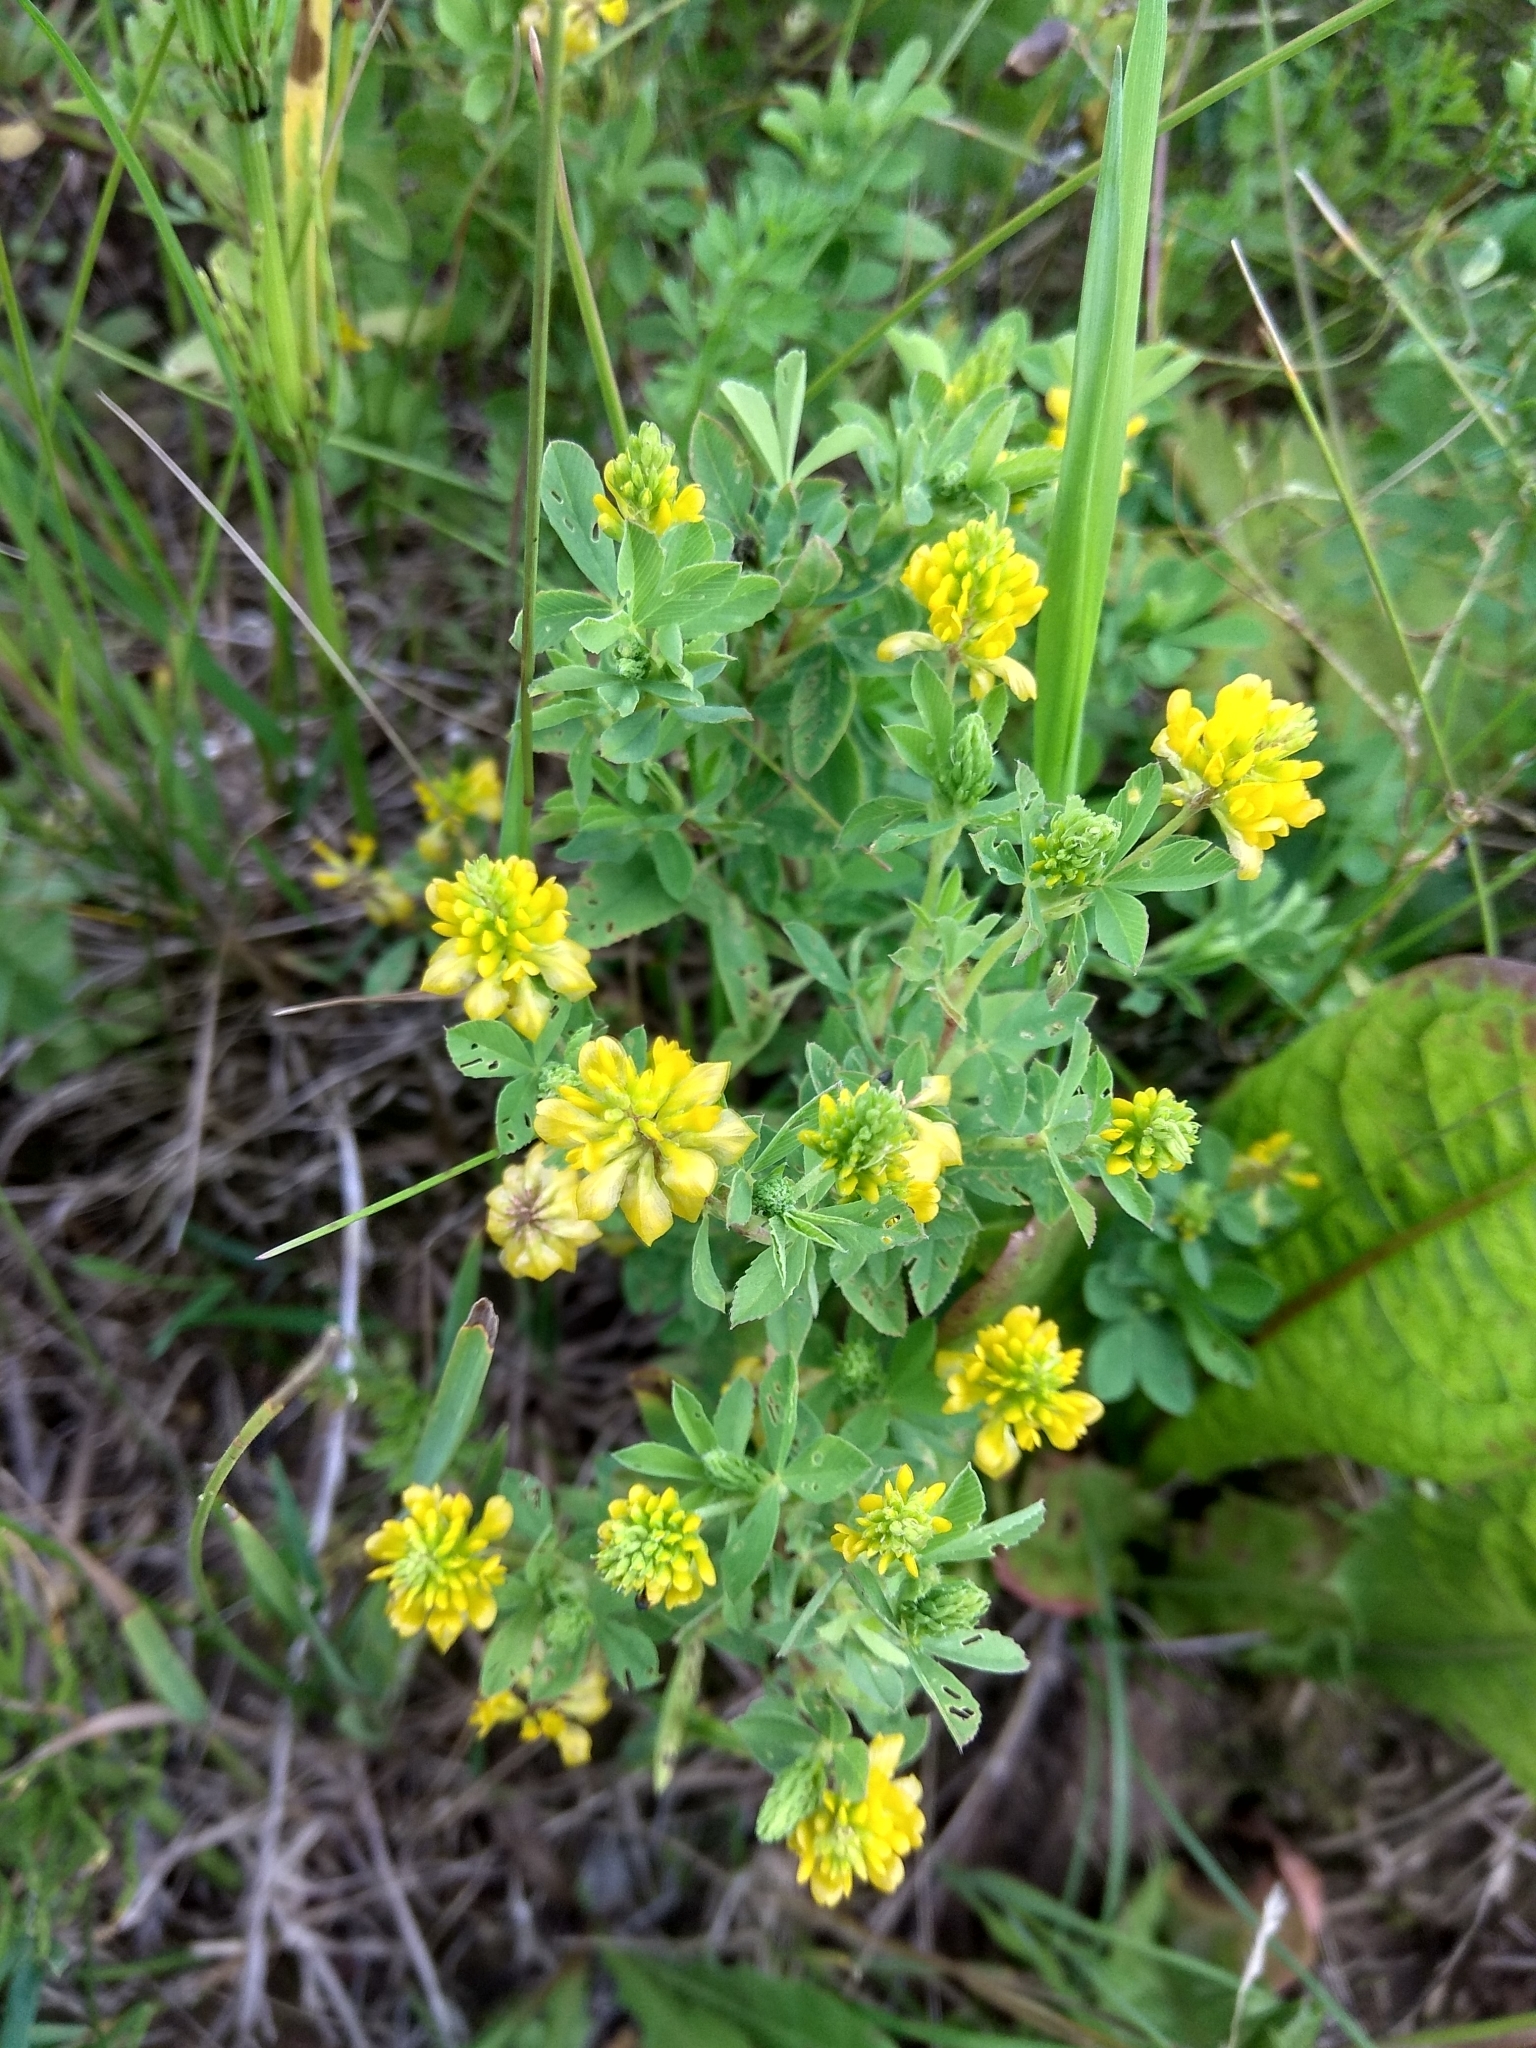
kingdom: Plantae
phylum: Tracheophyta
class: Magnoliopsida
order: Fabales
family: Fabaceae
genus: Trifolium
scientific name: Trifolium aureum
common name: Golden clover
